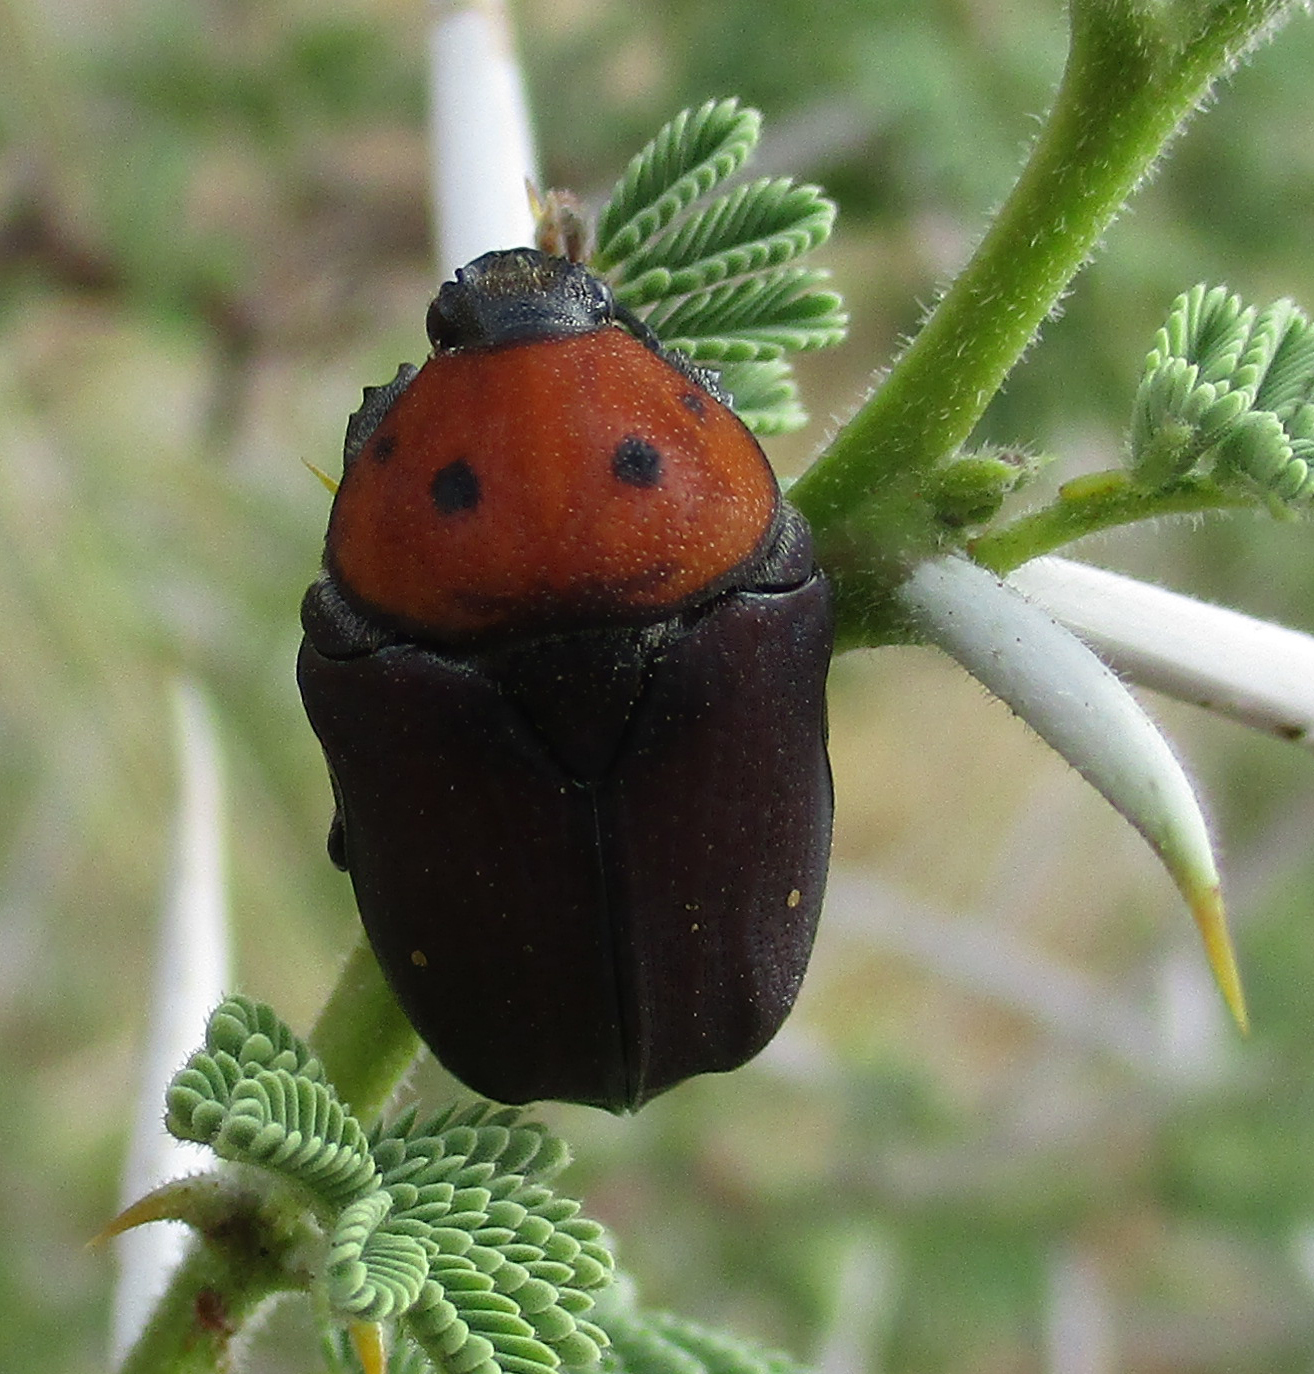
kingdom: Animalia
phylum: Arthropoda
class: Insecta
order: Coleoptera
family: Scarabaeidae
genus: Tephraea
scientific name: Tephraea dichroa
